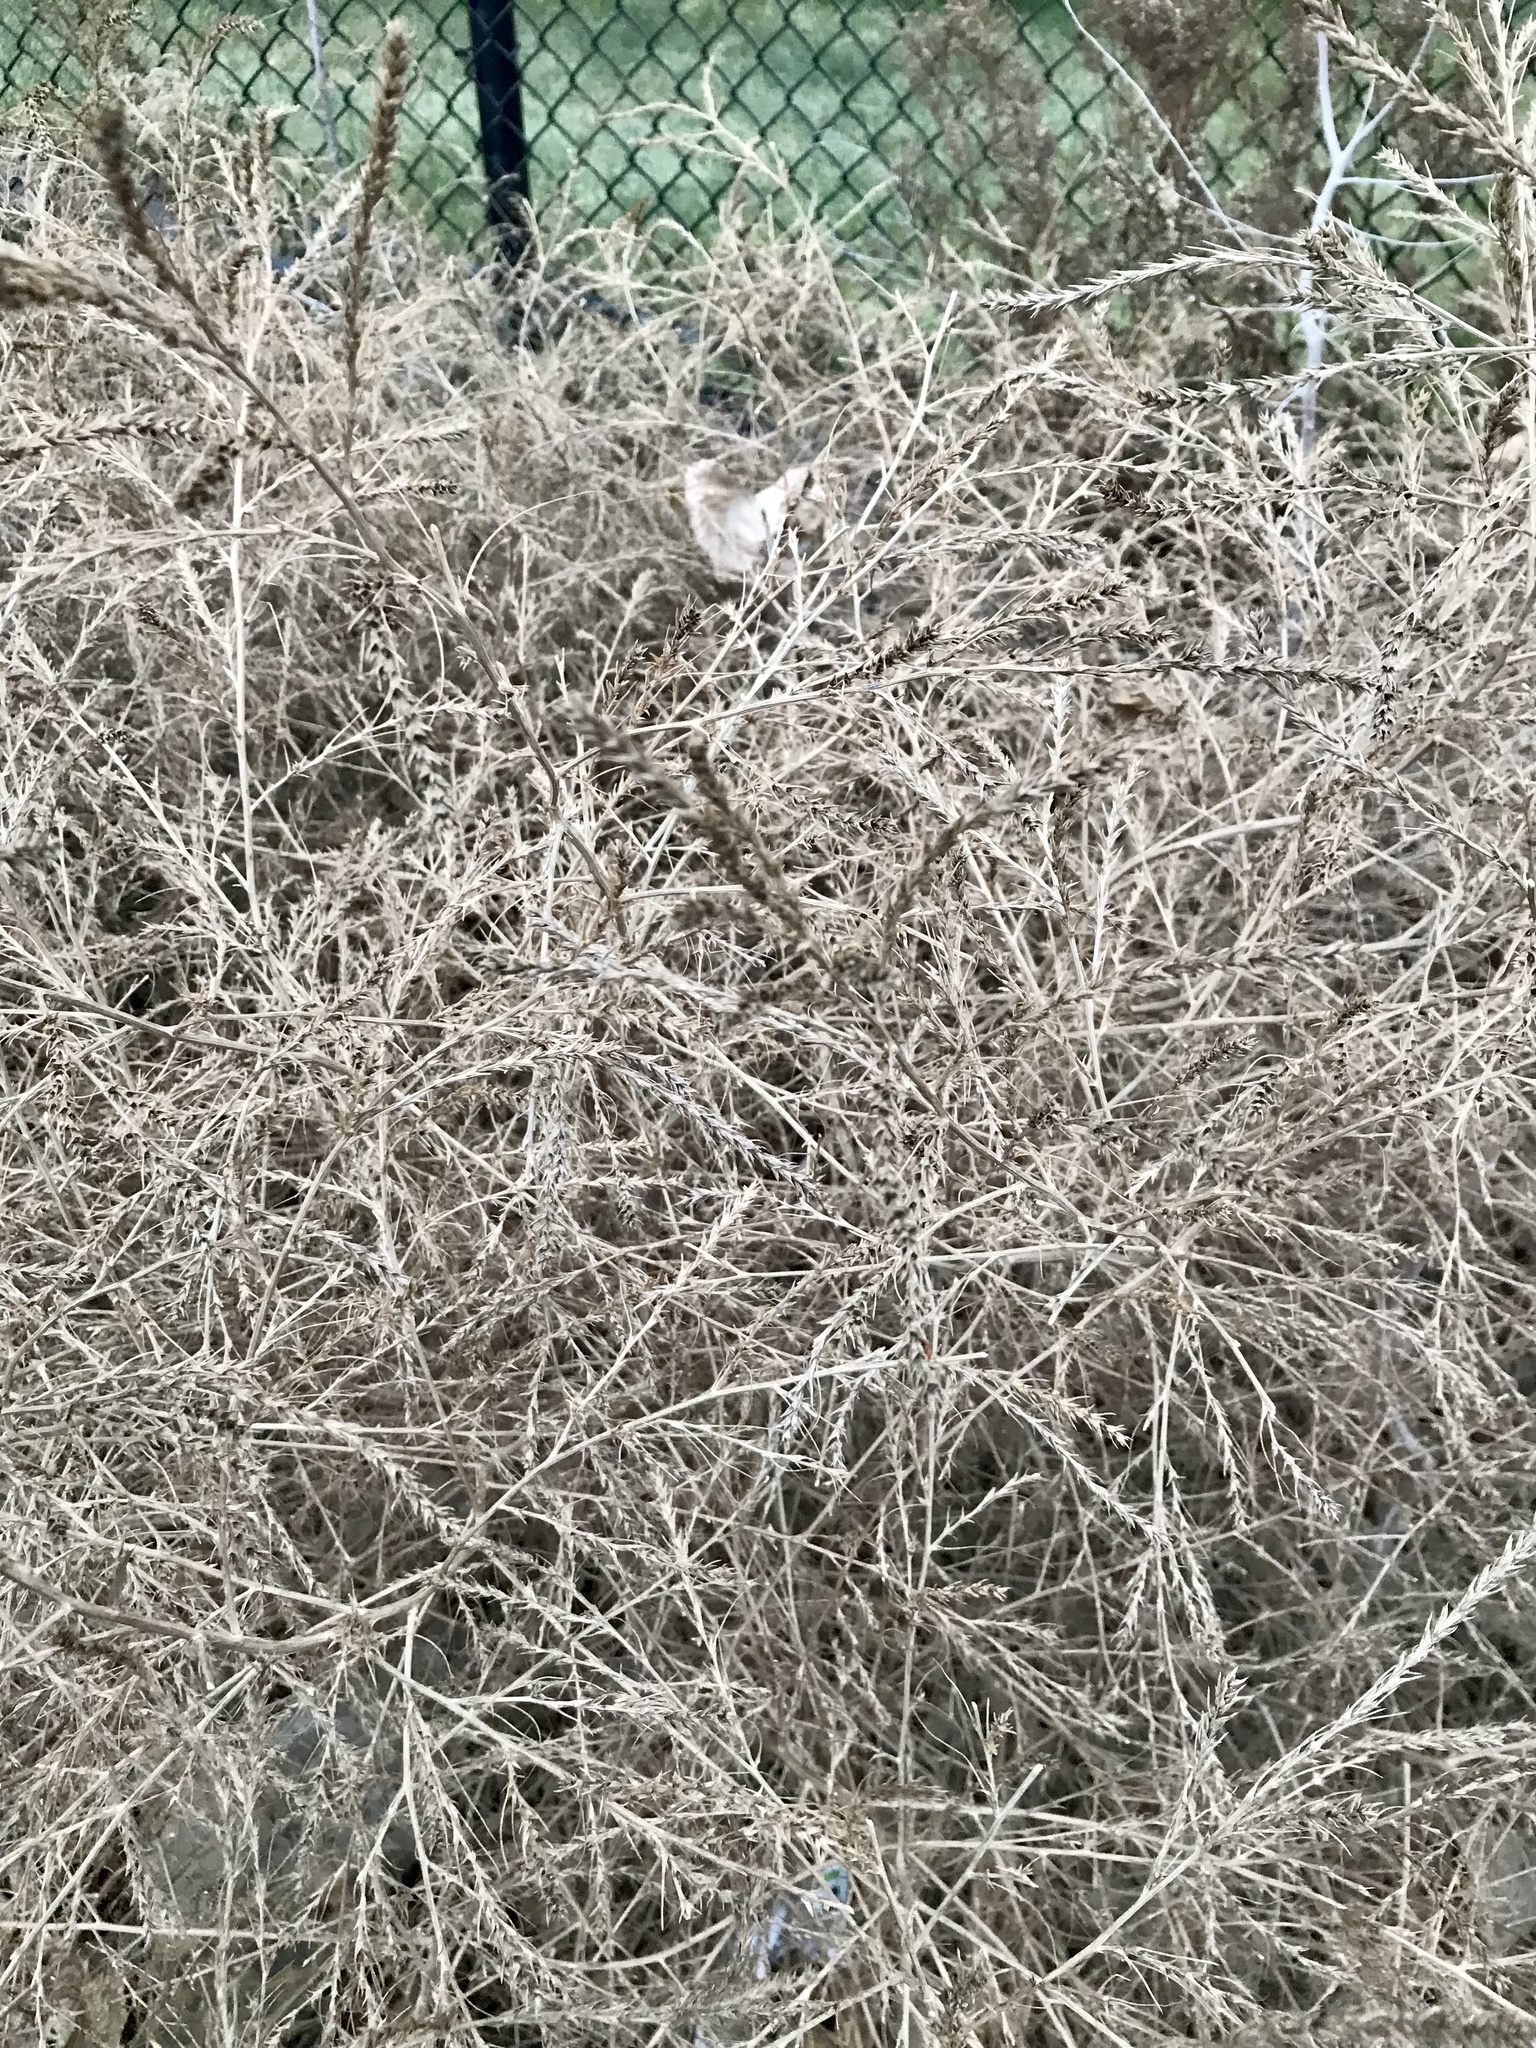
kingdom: Plantae
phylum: Tracheophyta
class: Magnoliopsida
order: Caryophyllales
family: Amaranthaceae
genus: Bassia
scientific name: Bassia scoparia
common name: Belvedere
